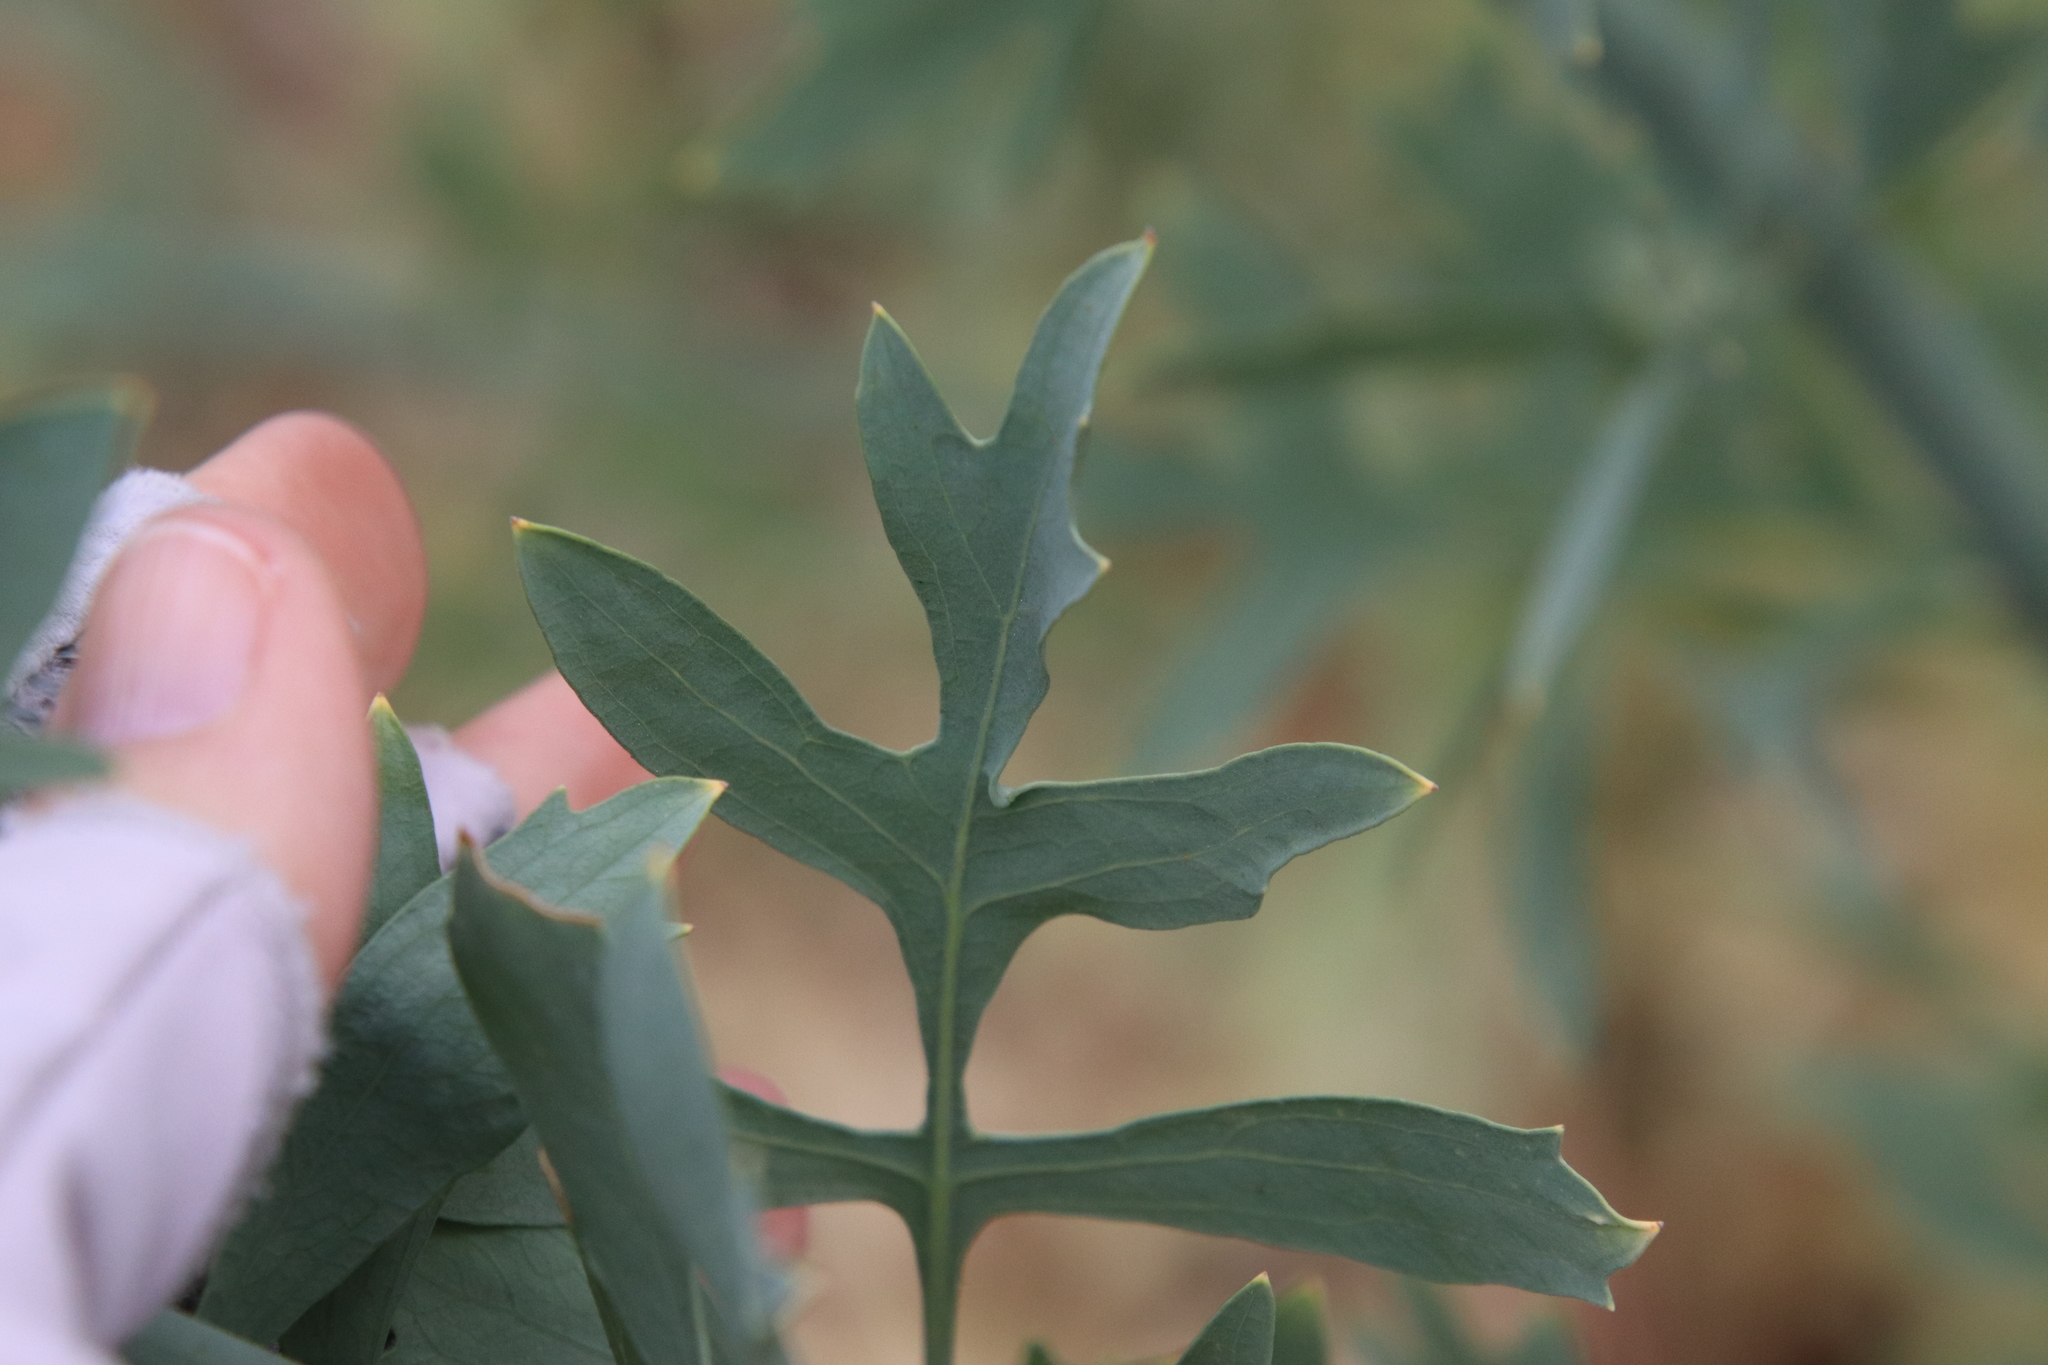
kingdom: Plantae
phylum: Tracheophyta
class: Magnoliopsida
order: Ranunculales
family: Papaveraceae
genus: Romneya
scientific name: Romneya trichocalyx
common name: Hairy matilija-poppy
